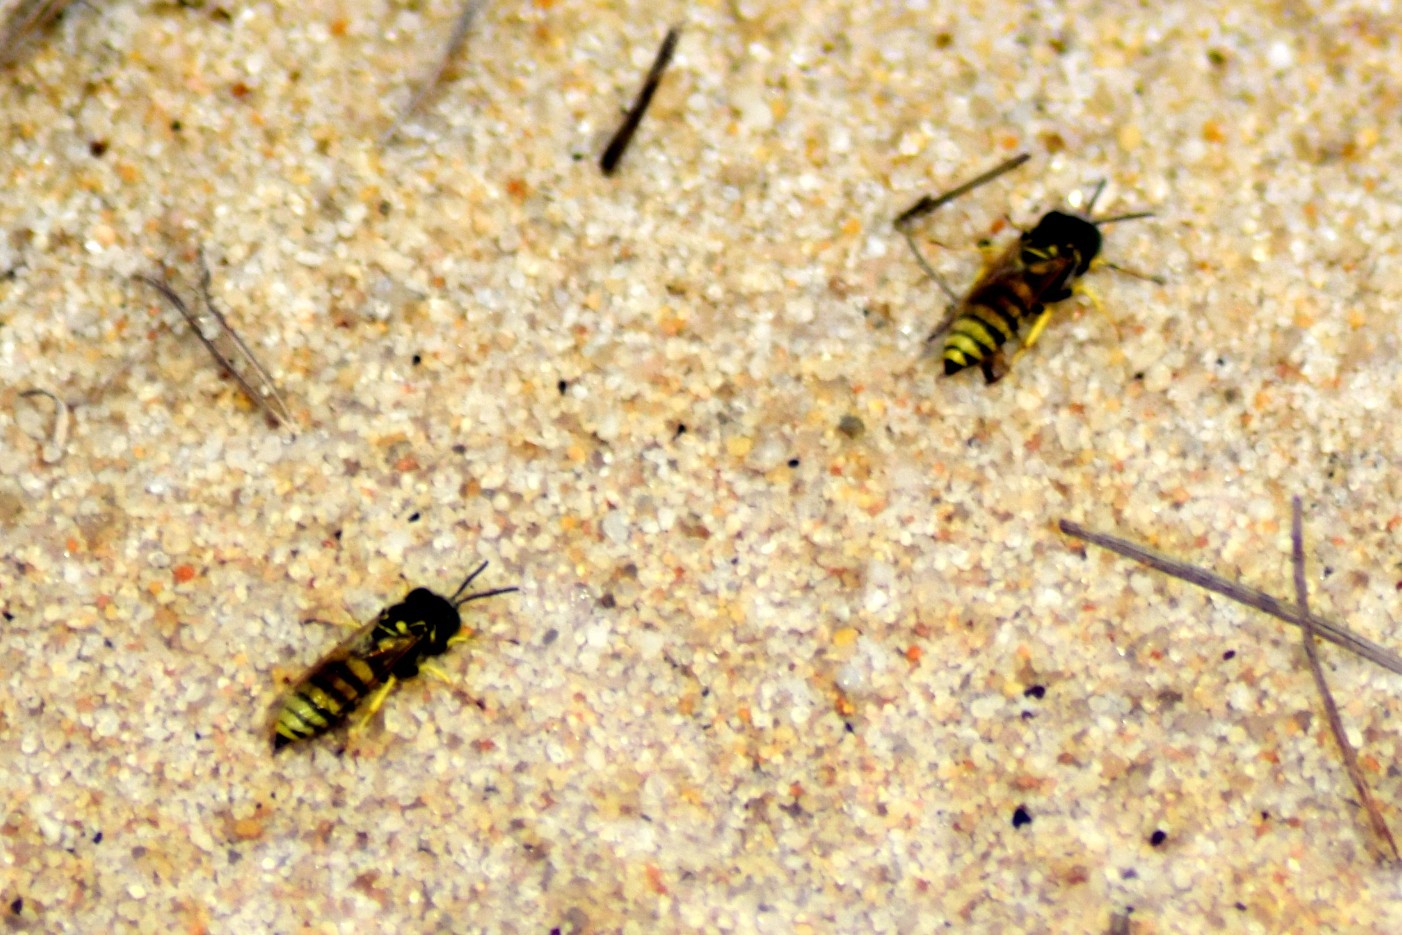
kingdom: Animalia
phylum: Arthropoda
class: Insecta
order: Hymenoptera
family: Crabronidae
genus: Microbembex
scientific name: Microbembex monodonta
